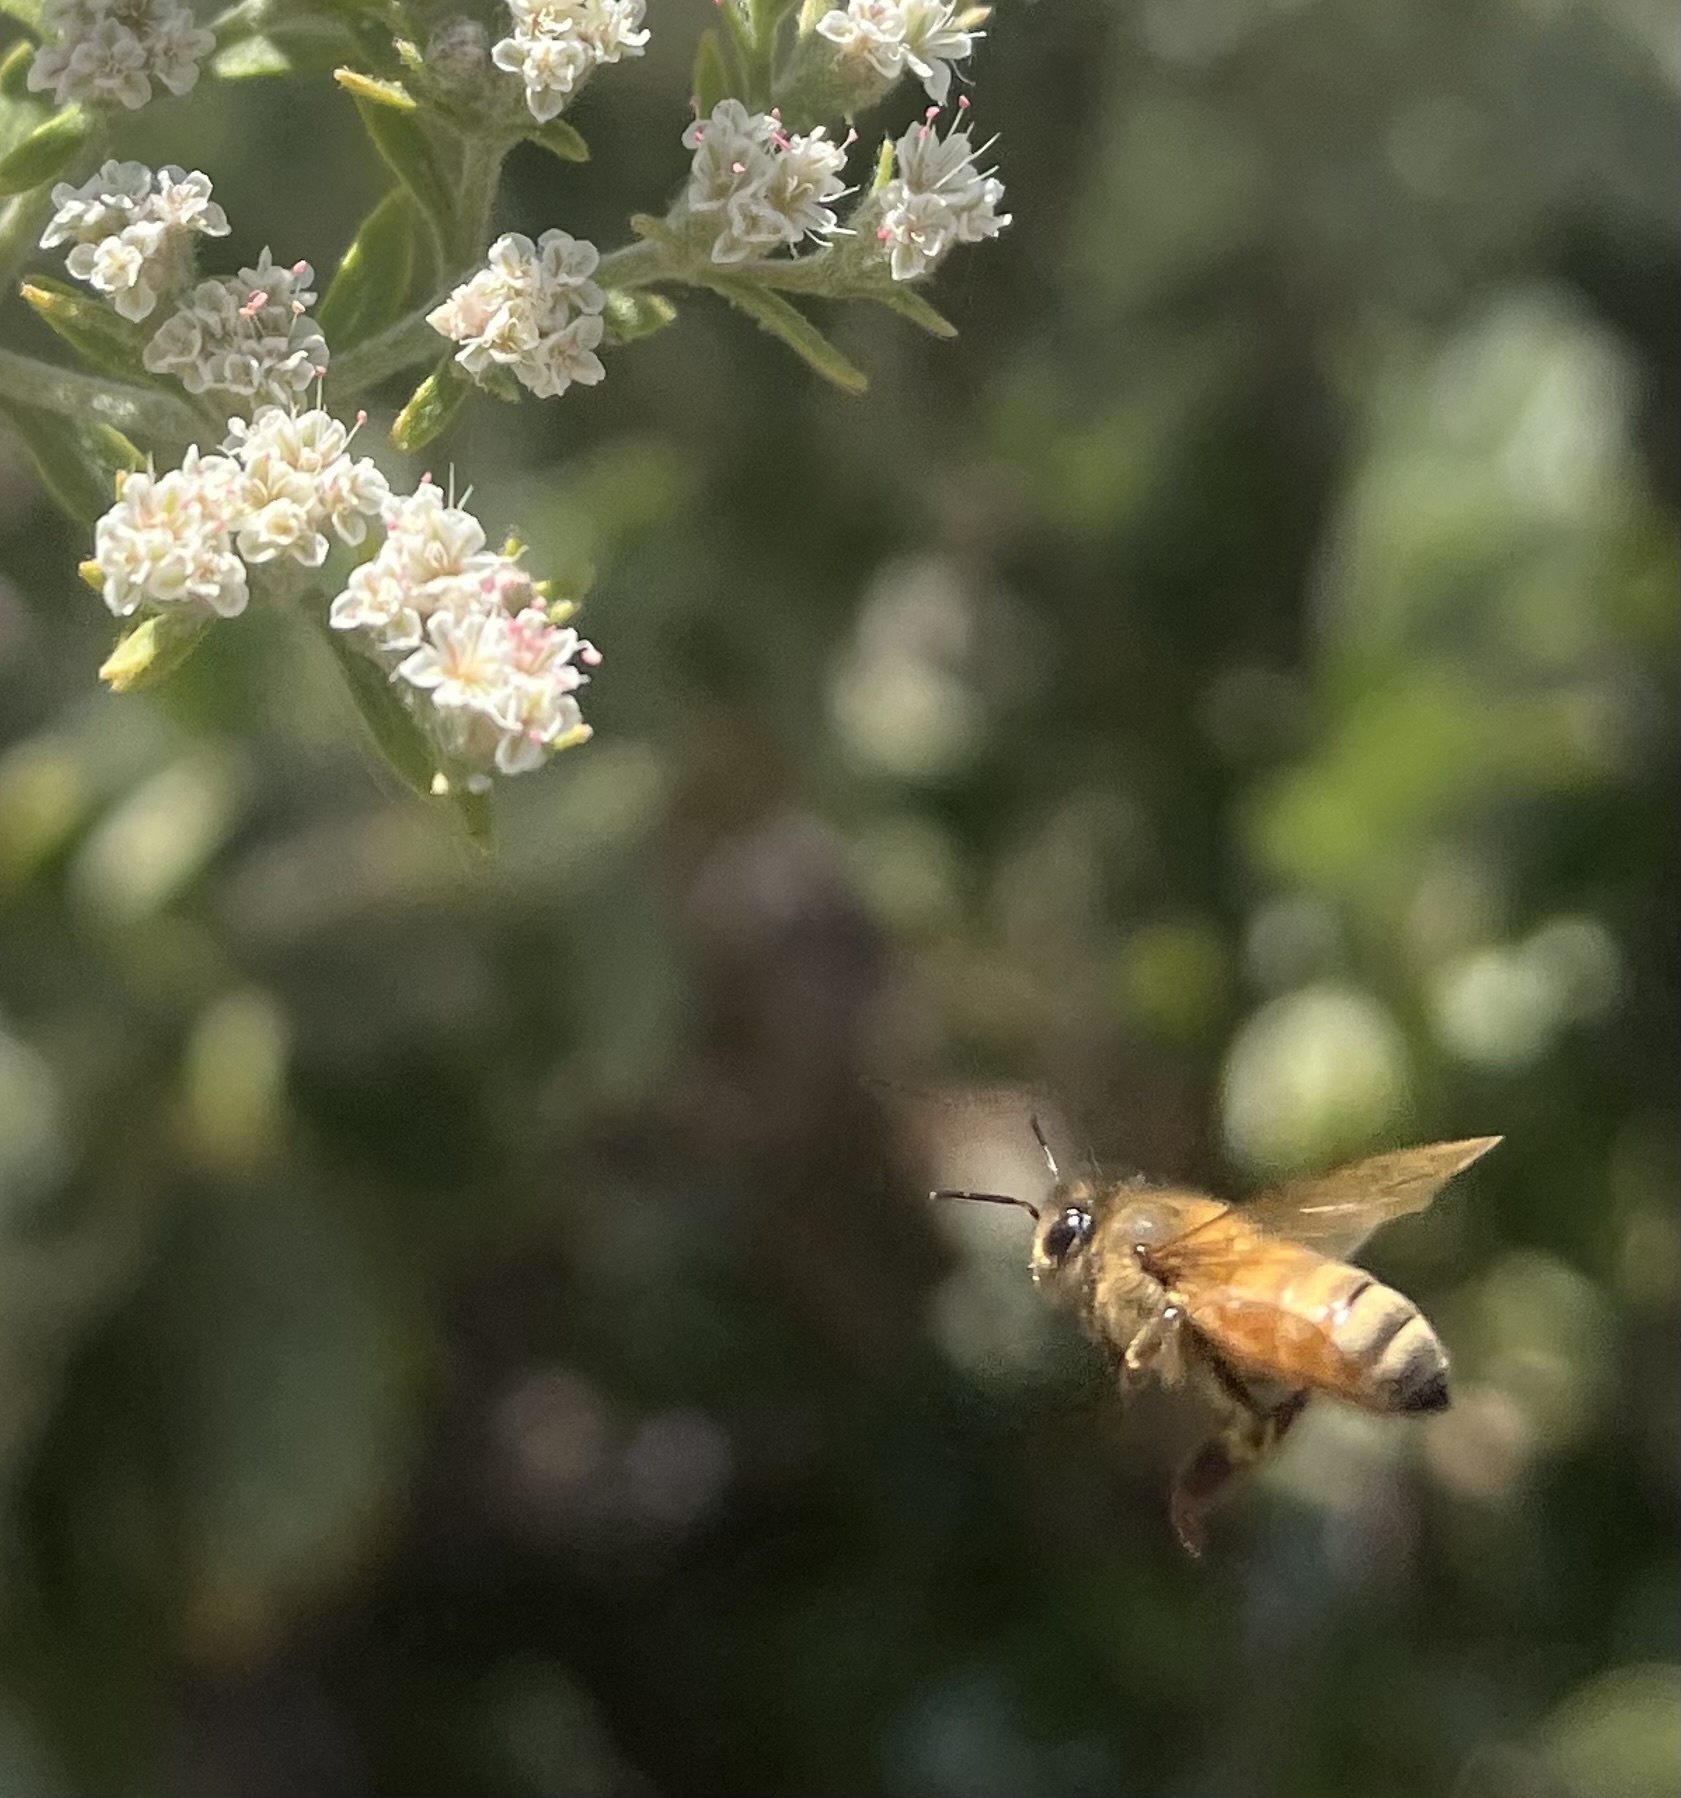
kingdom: Animalia
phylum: Arthropoda
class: Insecta
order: Hymenoptera
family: Apidae
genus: Apis
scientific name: Apis mellifera
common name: Honey bee
